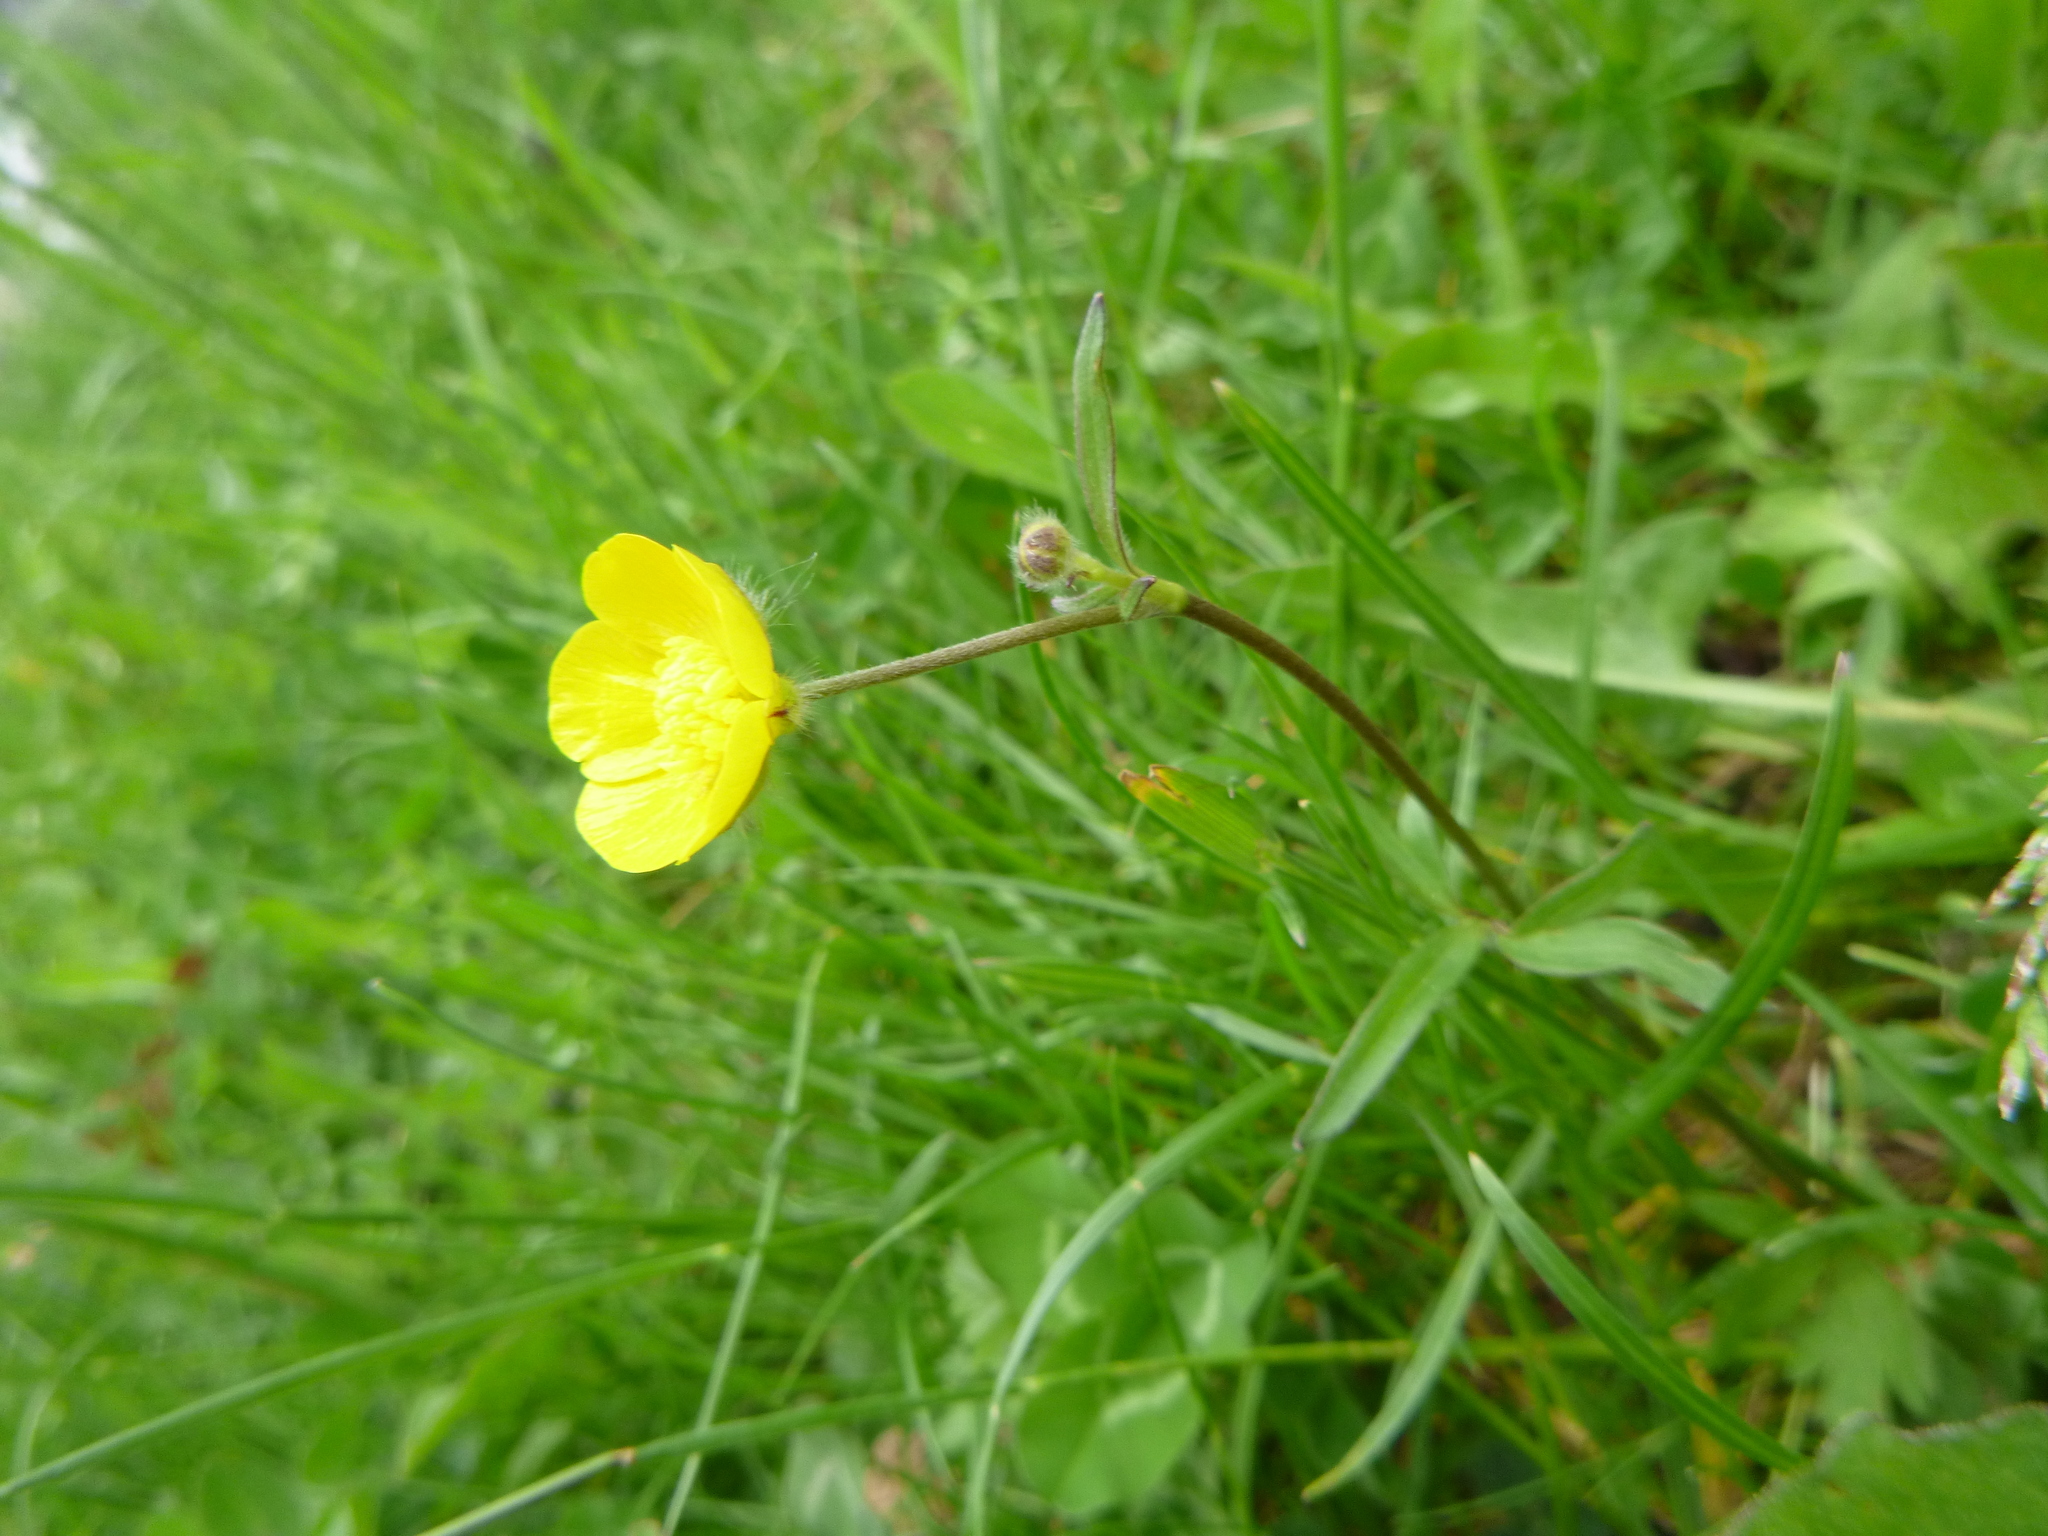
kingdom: Plantae
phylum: Tracheophyta
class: Magnoliopsida
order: Ranunculales
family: Ranunculaceae
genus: Ranunculus
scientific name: Ranunculus bulbosus
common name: Bulbous buttercup
